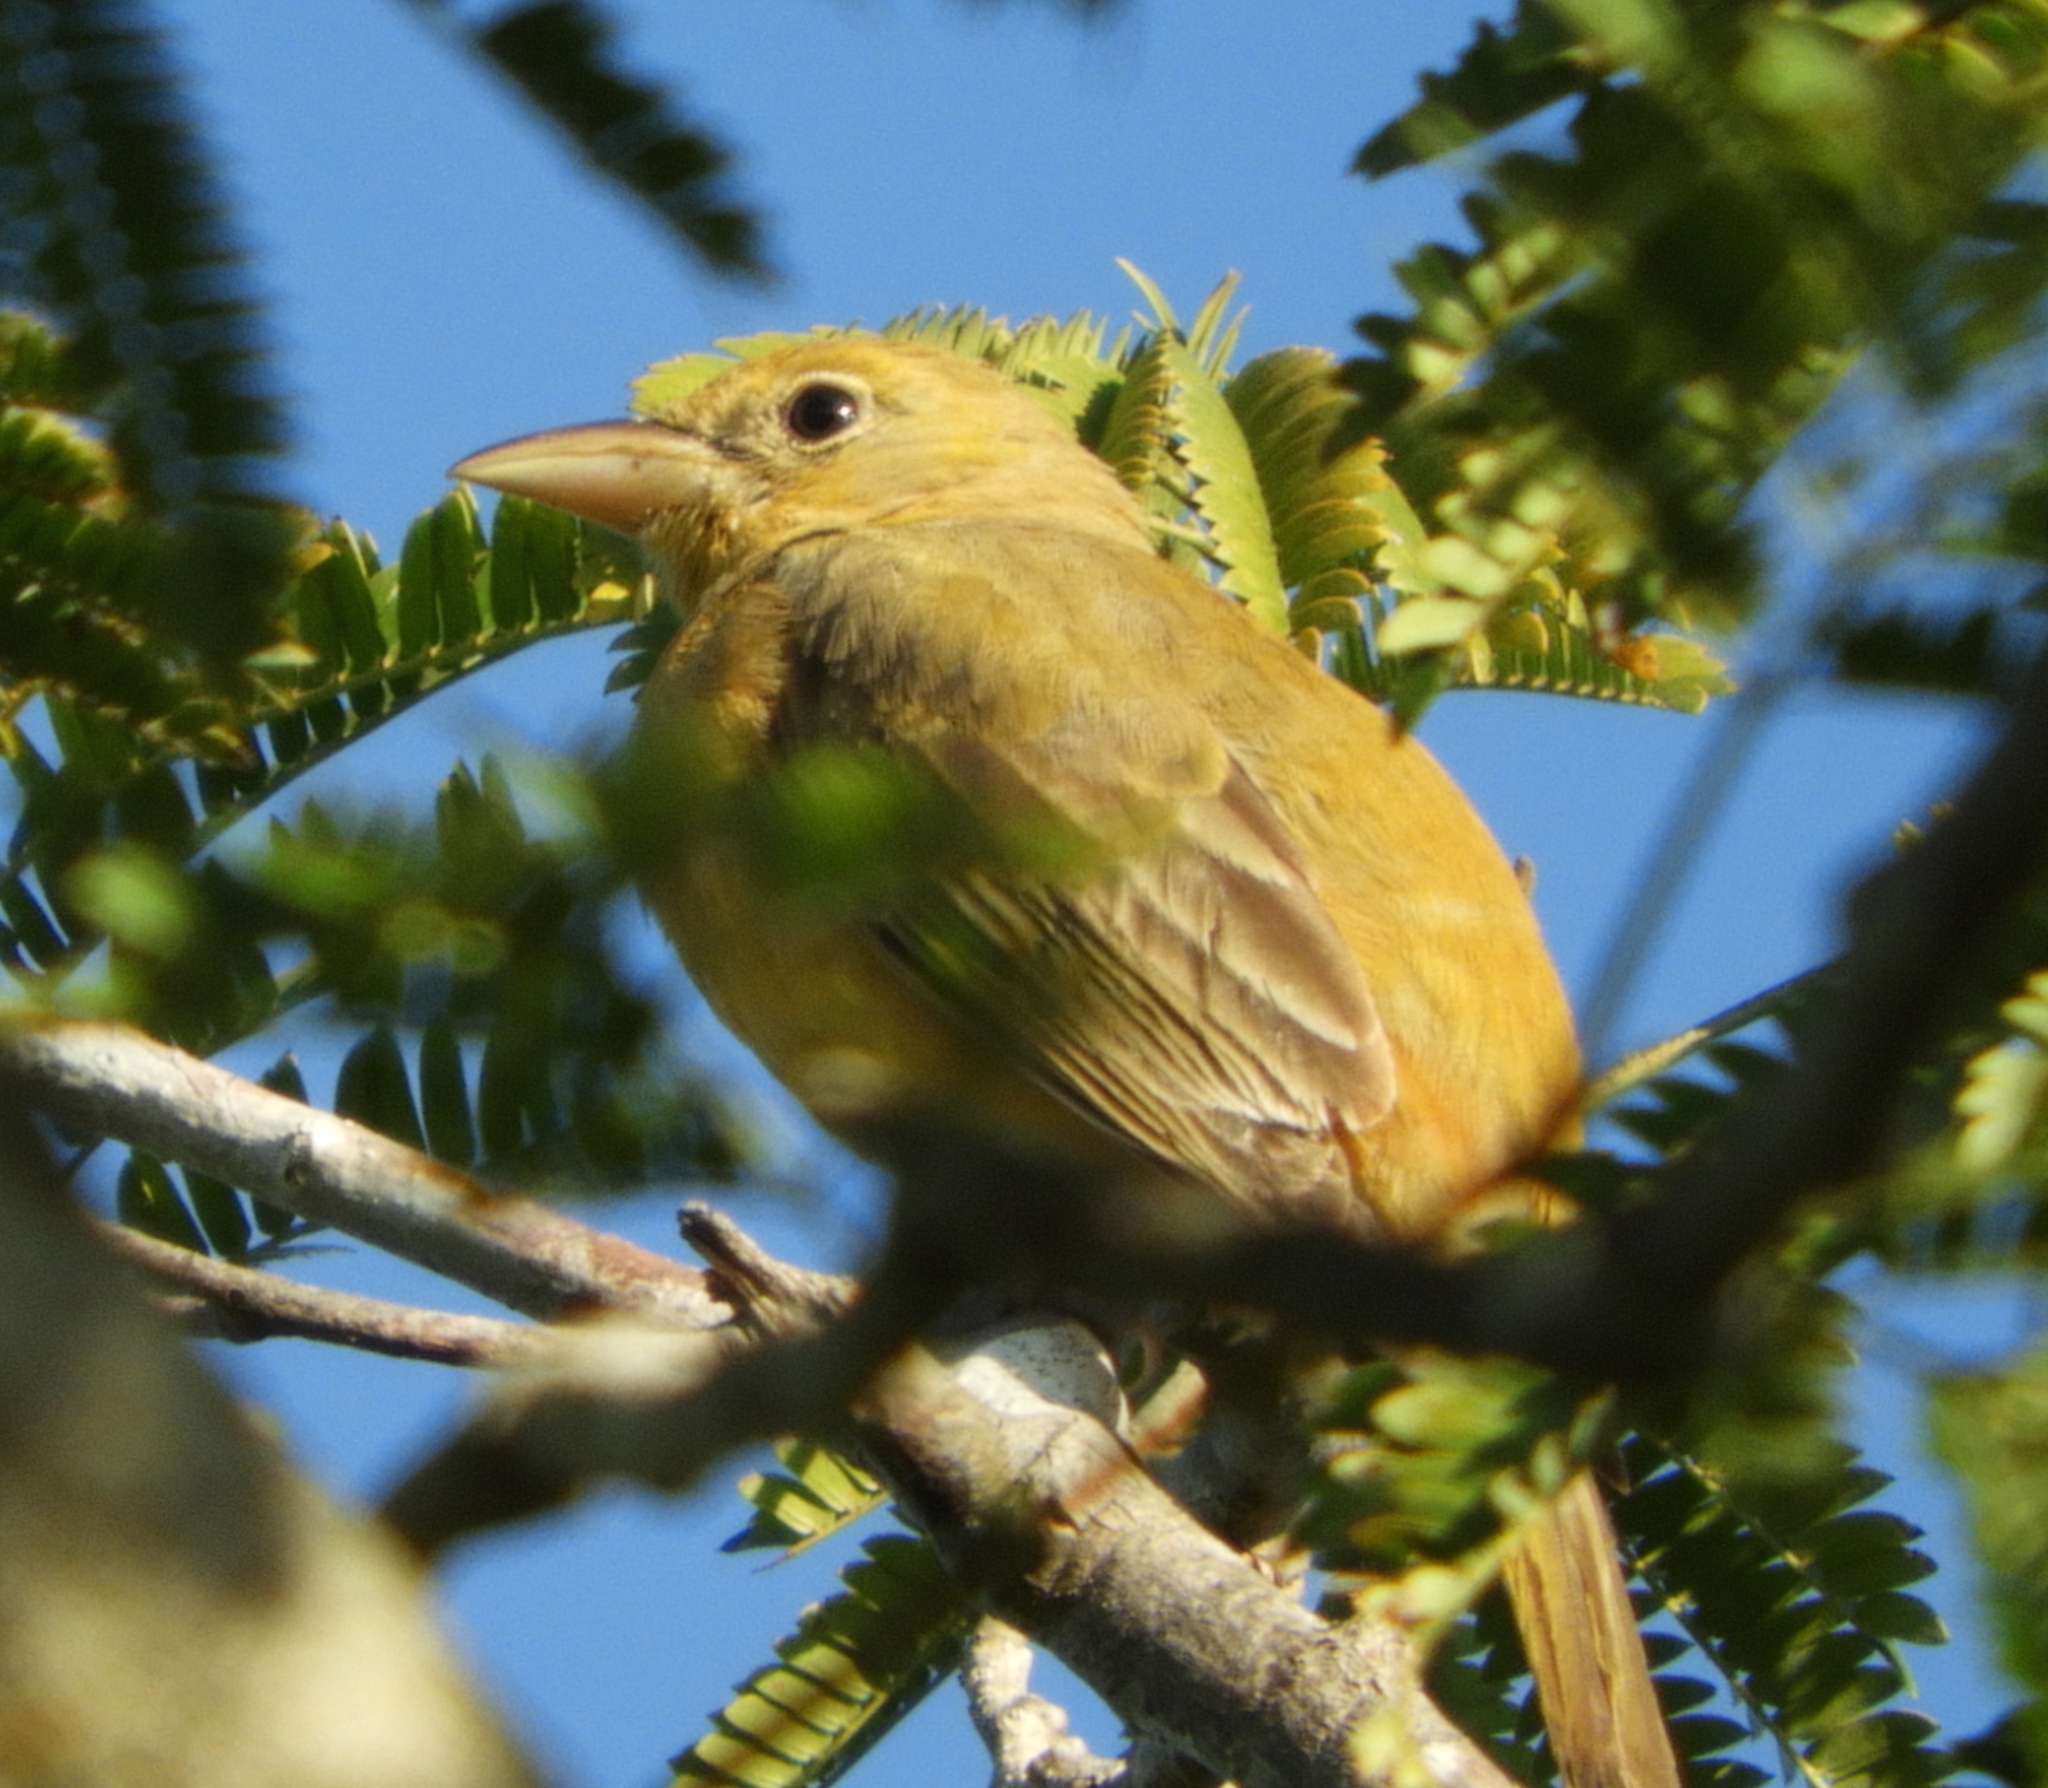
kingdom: Animalia
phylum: Chordata
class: Aves
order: Passeriformes
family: Cardinalidae
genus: Piranga
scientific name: Piranga rubra
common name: Summer tanager
